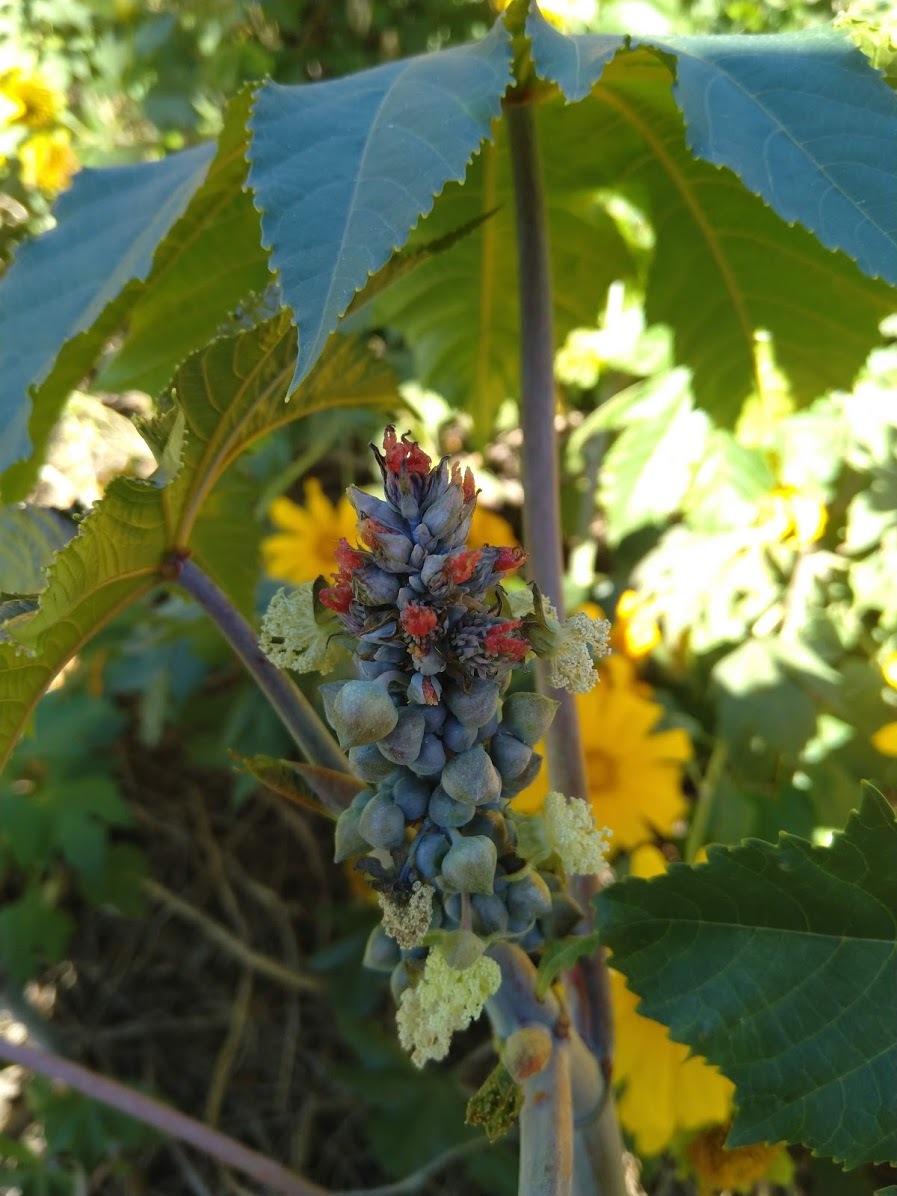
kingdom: Plantae
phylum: Tracheophyta
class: Magnoliopsida
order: Malpighiales
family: Euphorbiaceae
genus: Ricinus
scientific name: Ricinus communis
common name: Castor-oil-plant
